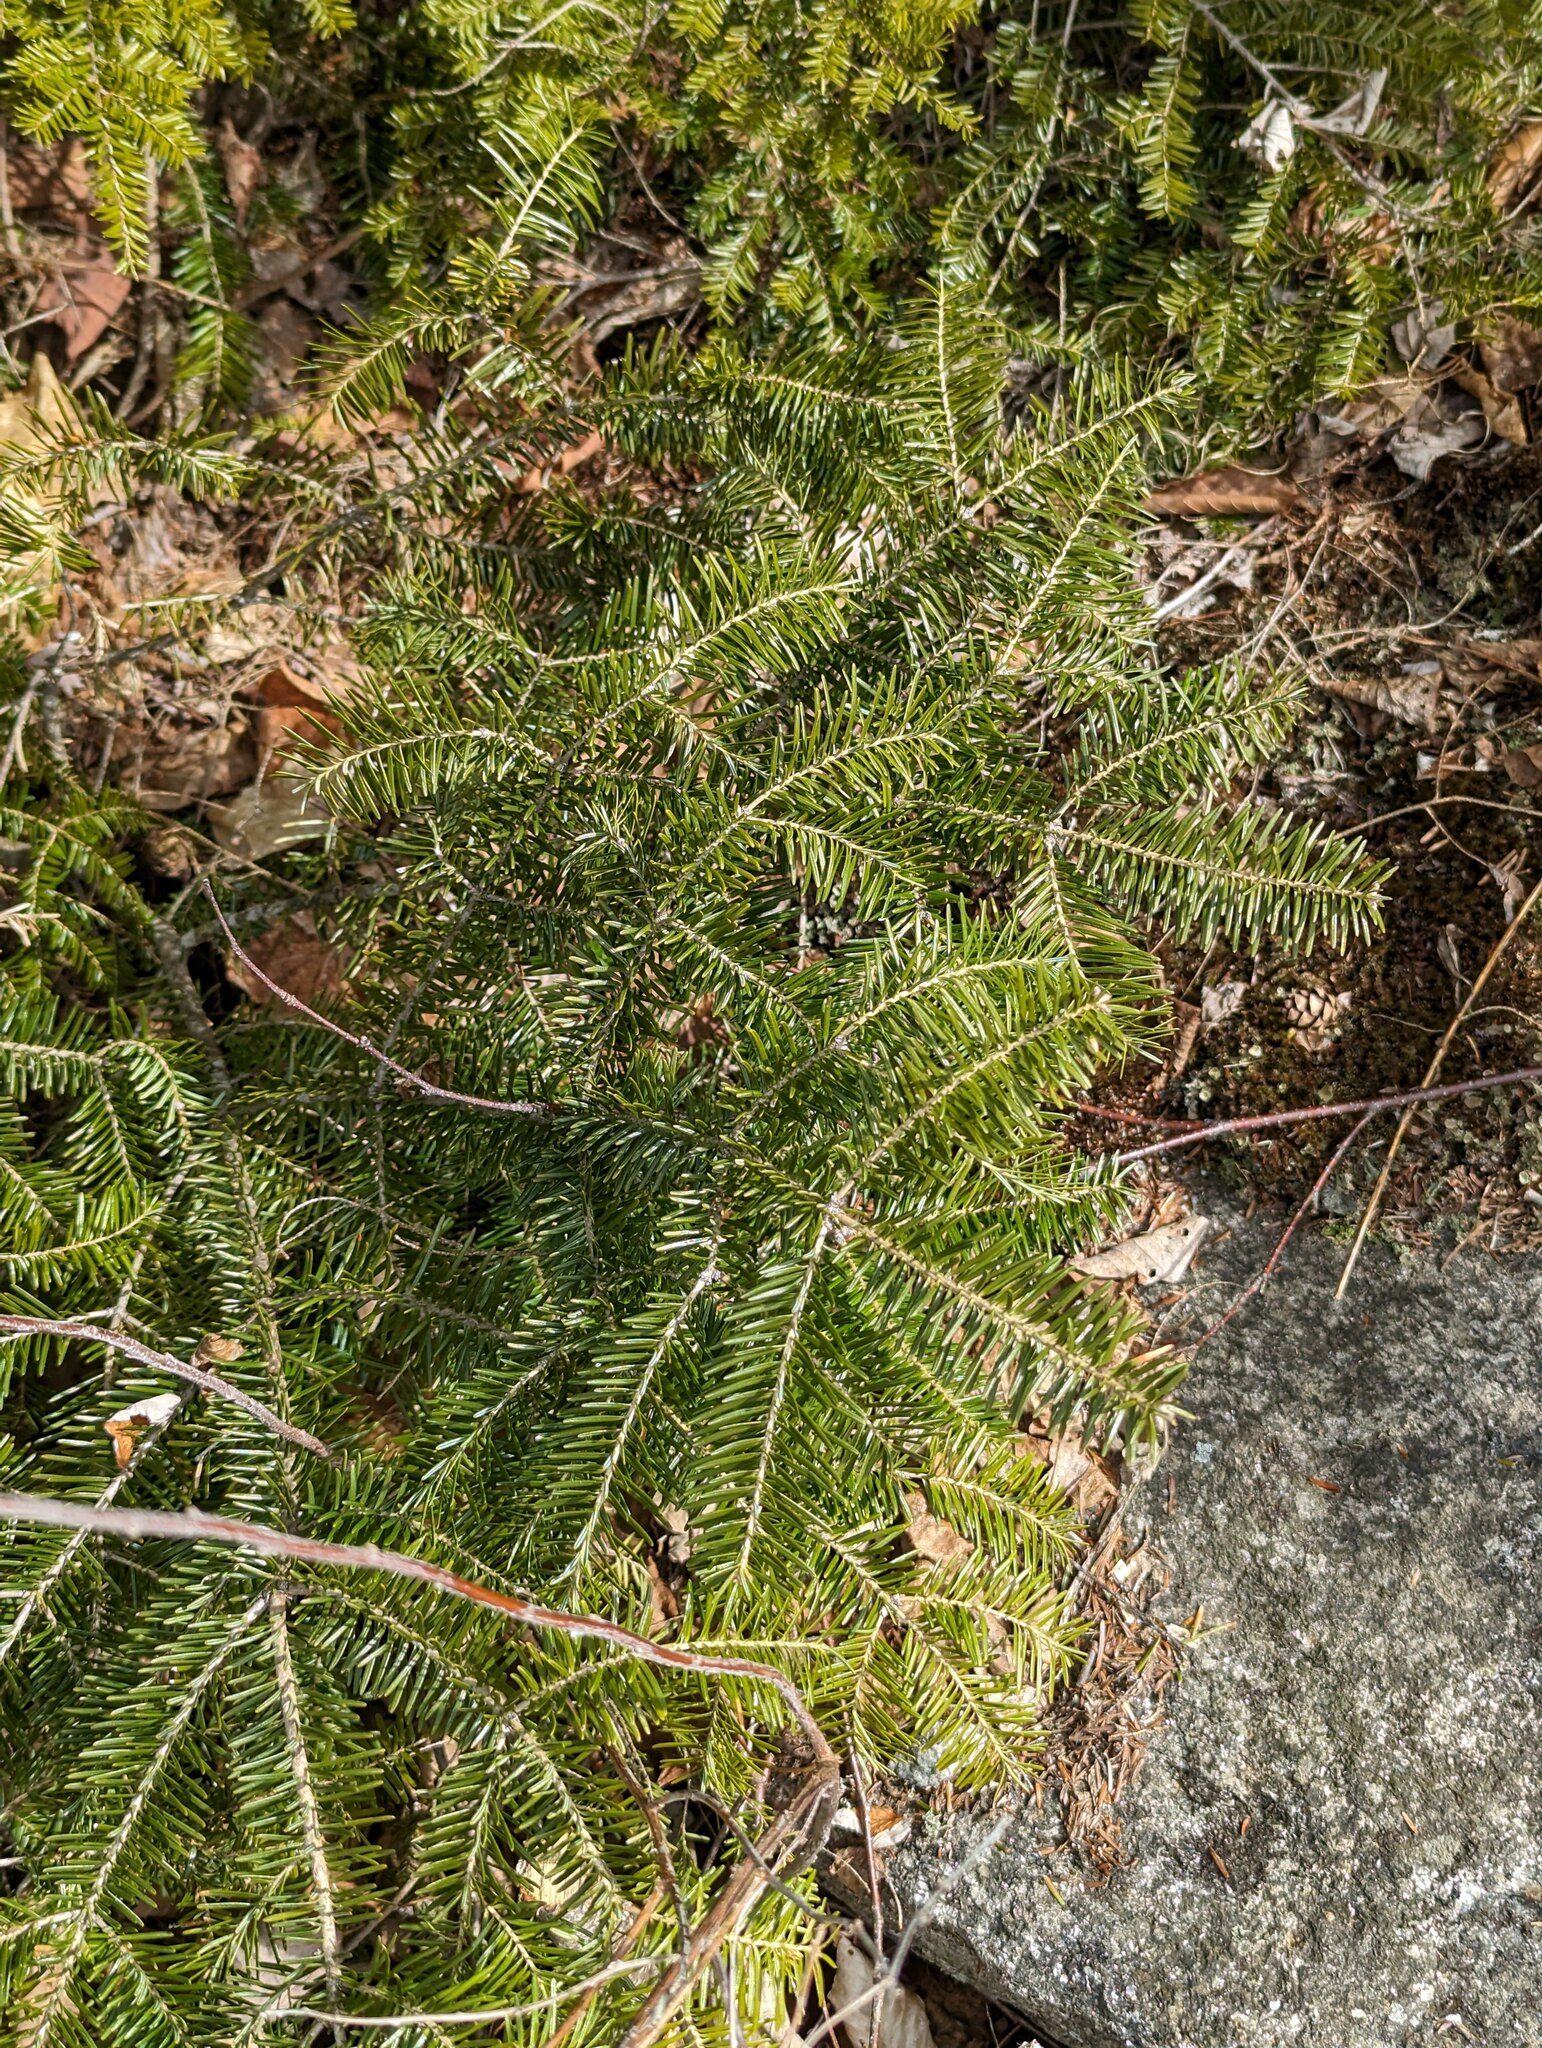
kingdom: Plantae
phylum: Tracheophyta
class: Pinopsida
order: Pinales
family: Pinaceae
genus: Abies
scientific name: Abies balsamea
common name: Balsam fir
